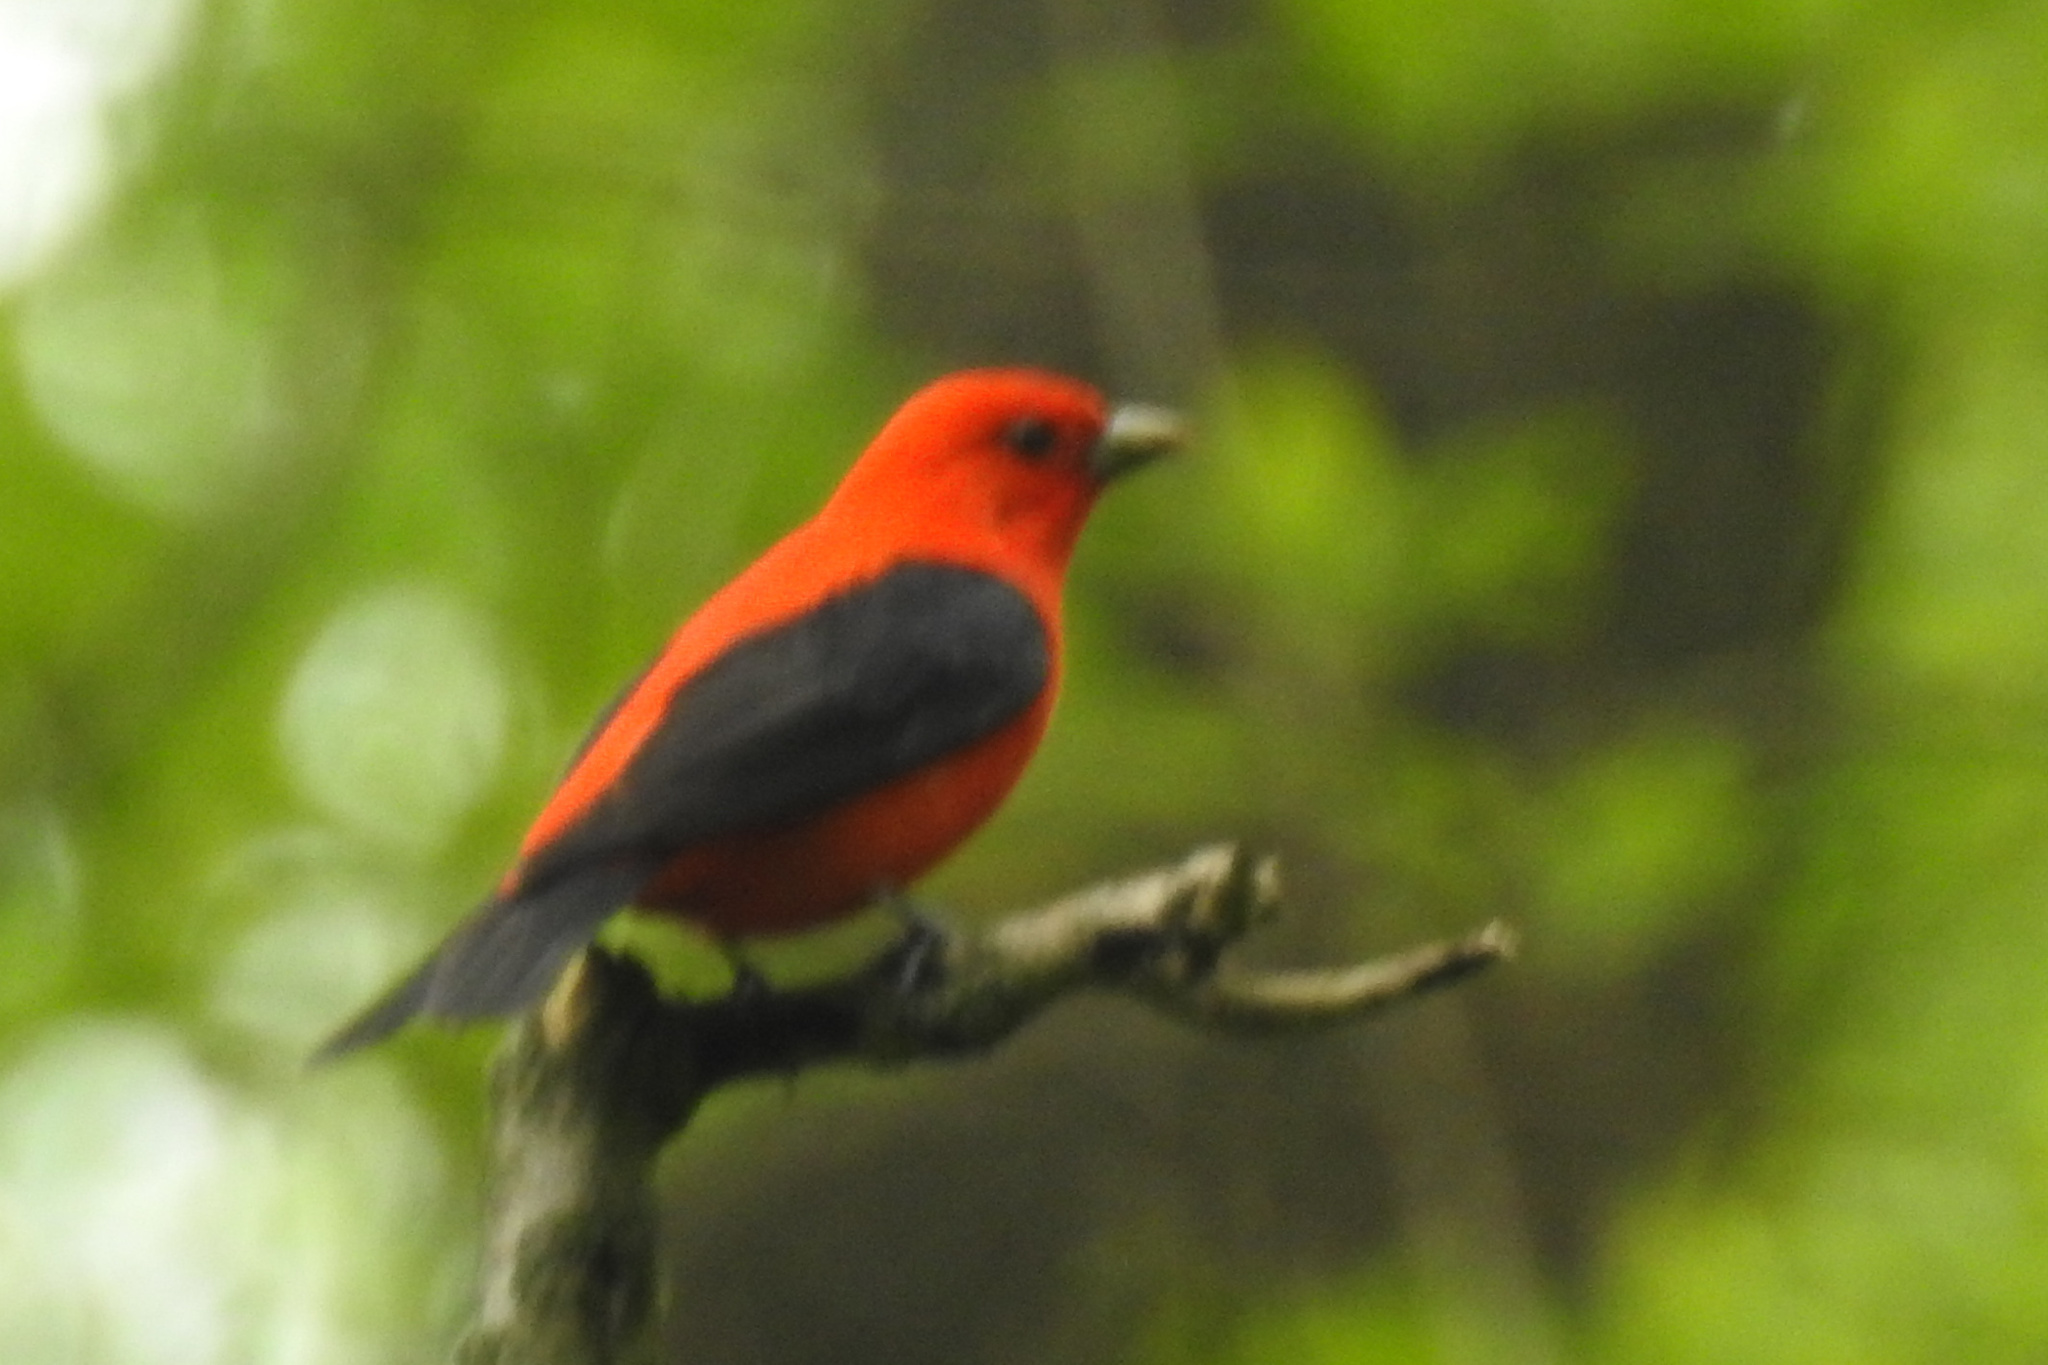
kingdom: Animalia
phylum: Chordata
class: Aves
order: Passeriformes
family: Cardinalidae
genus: Piranga
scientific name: Piranga olivacea
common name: Scarlet tanager
